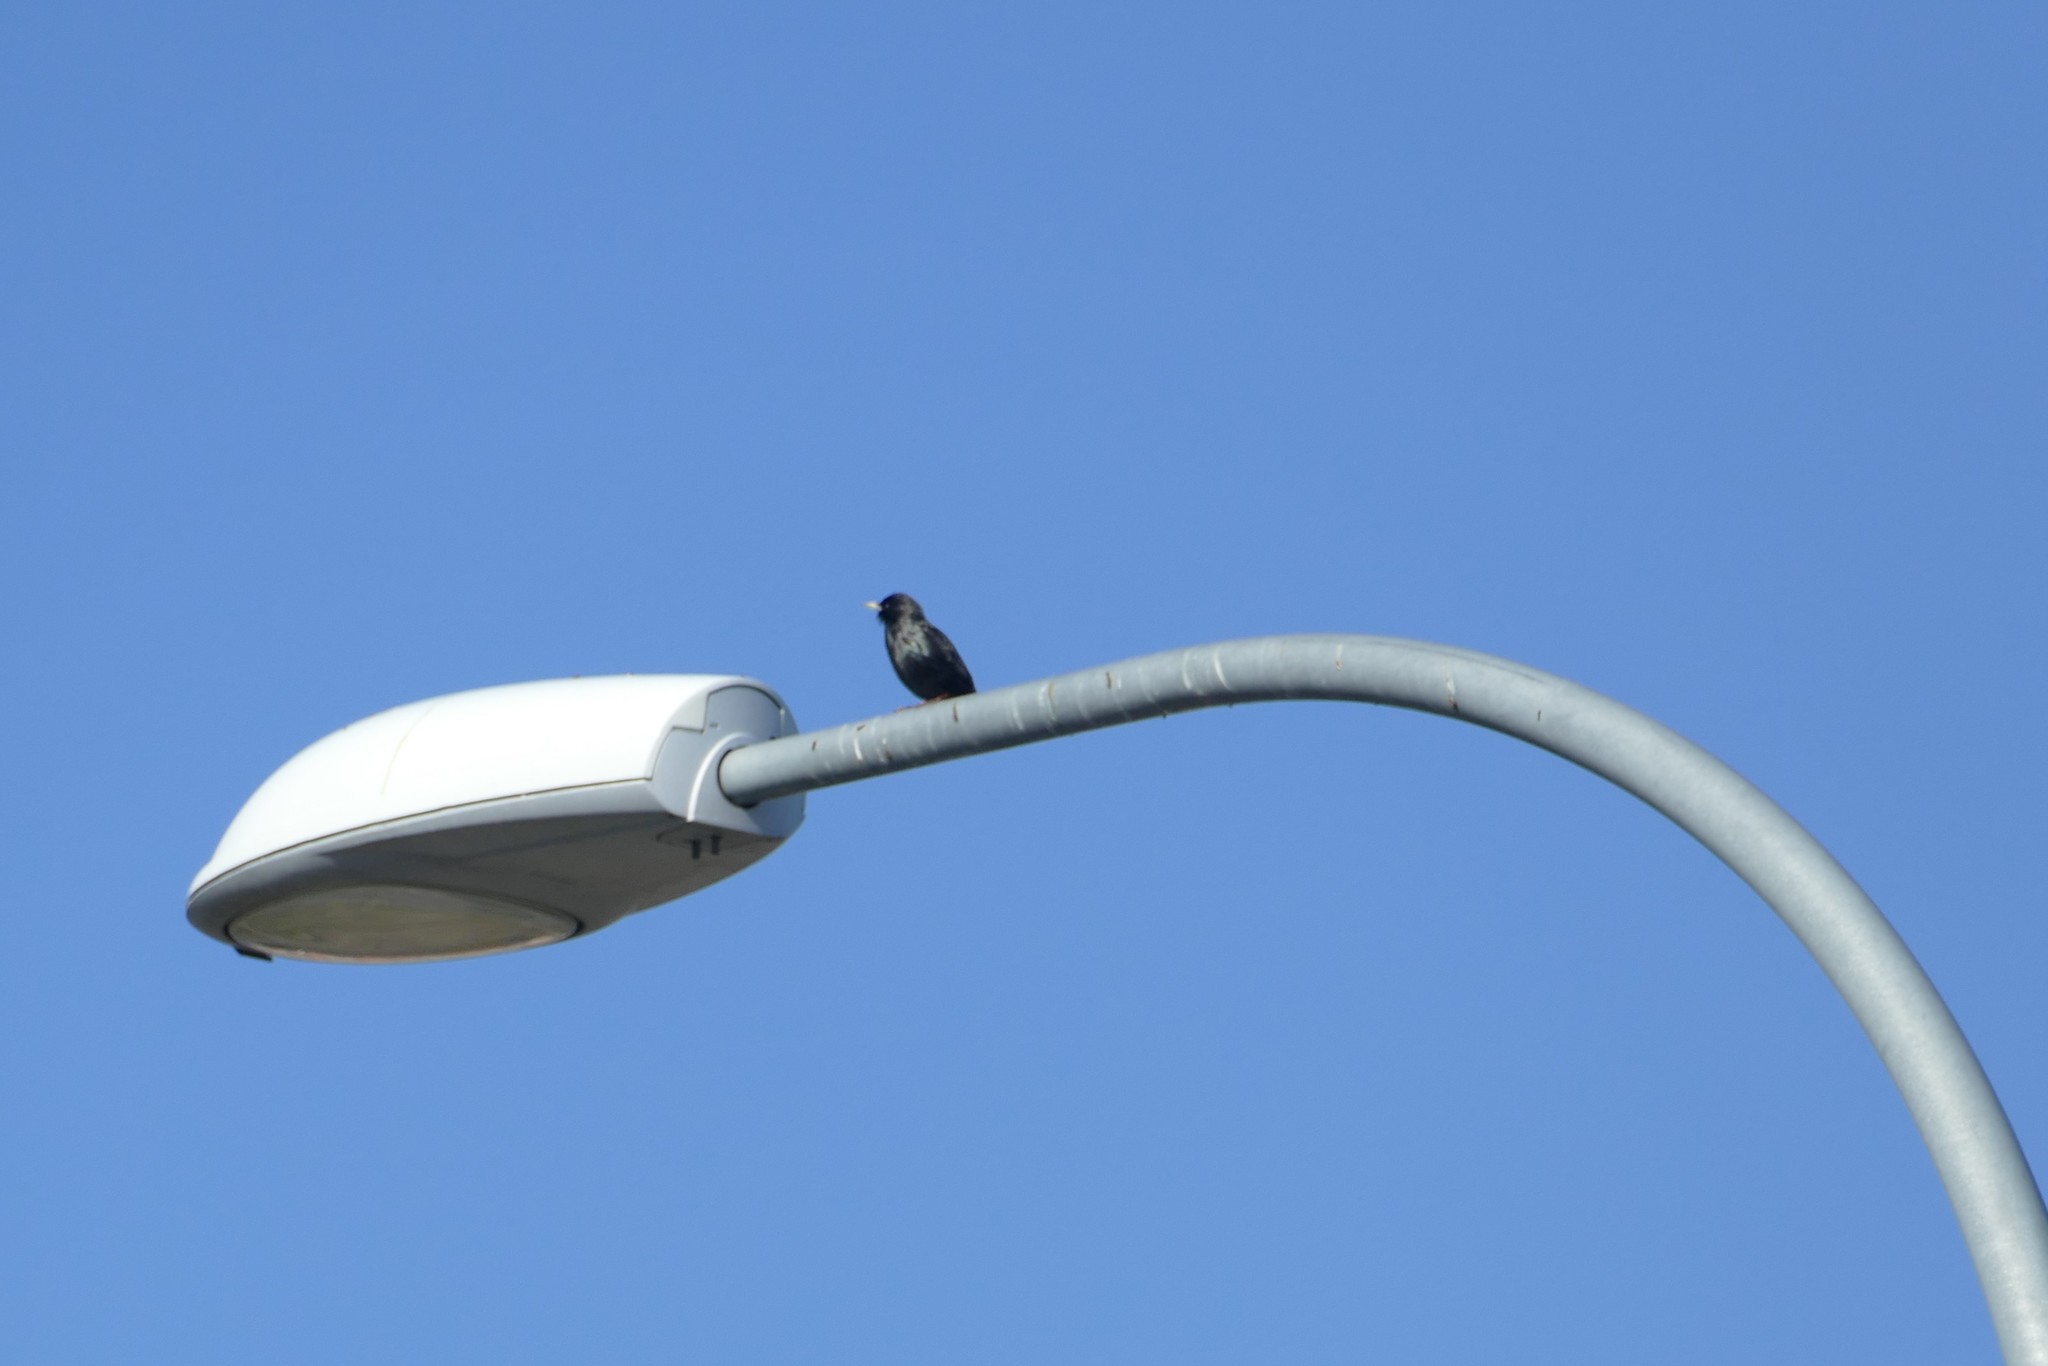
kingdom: Animalia
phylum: Chordata
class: Aves
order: Passeriformes
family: Sturnidae
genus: Sturnus
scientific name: Sturnus unicolor
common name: Spotless starling
